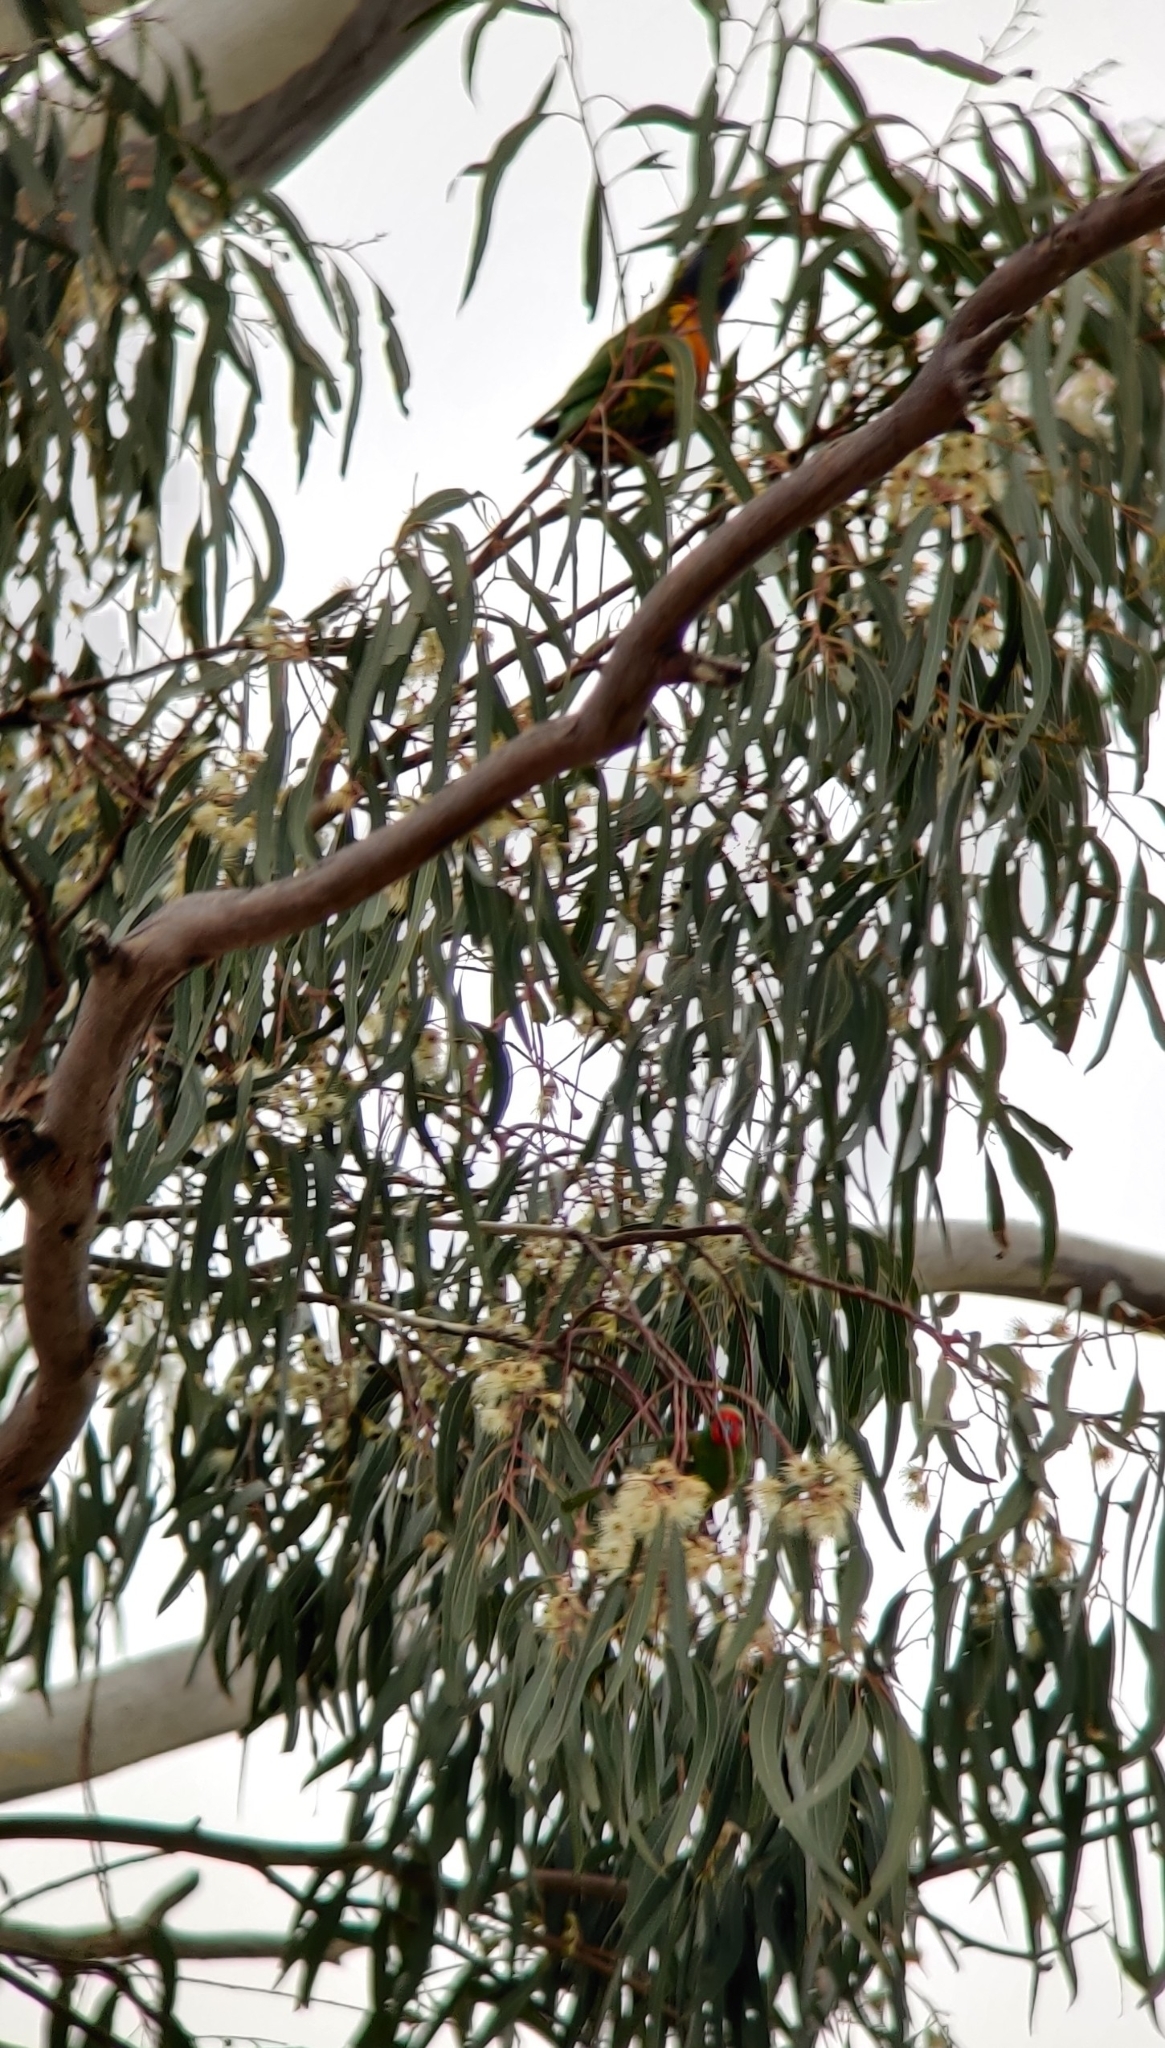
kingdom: Animalia
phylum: Chordata
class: Aves
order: Psittaciformes
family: Psittaculidae
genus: Parvipsitta
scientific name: Parvipsitta pusilla
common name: Little lorikeet
